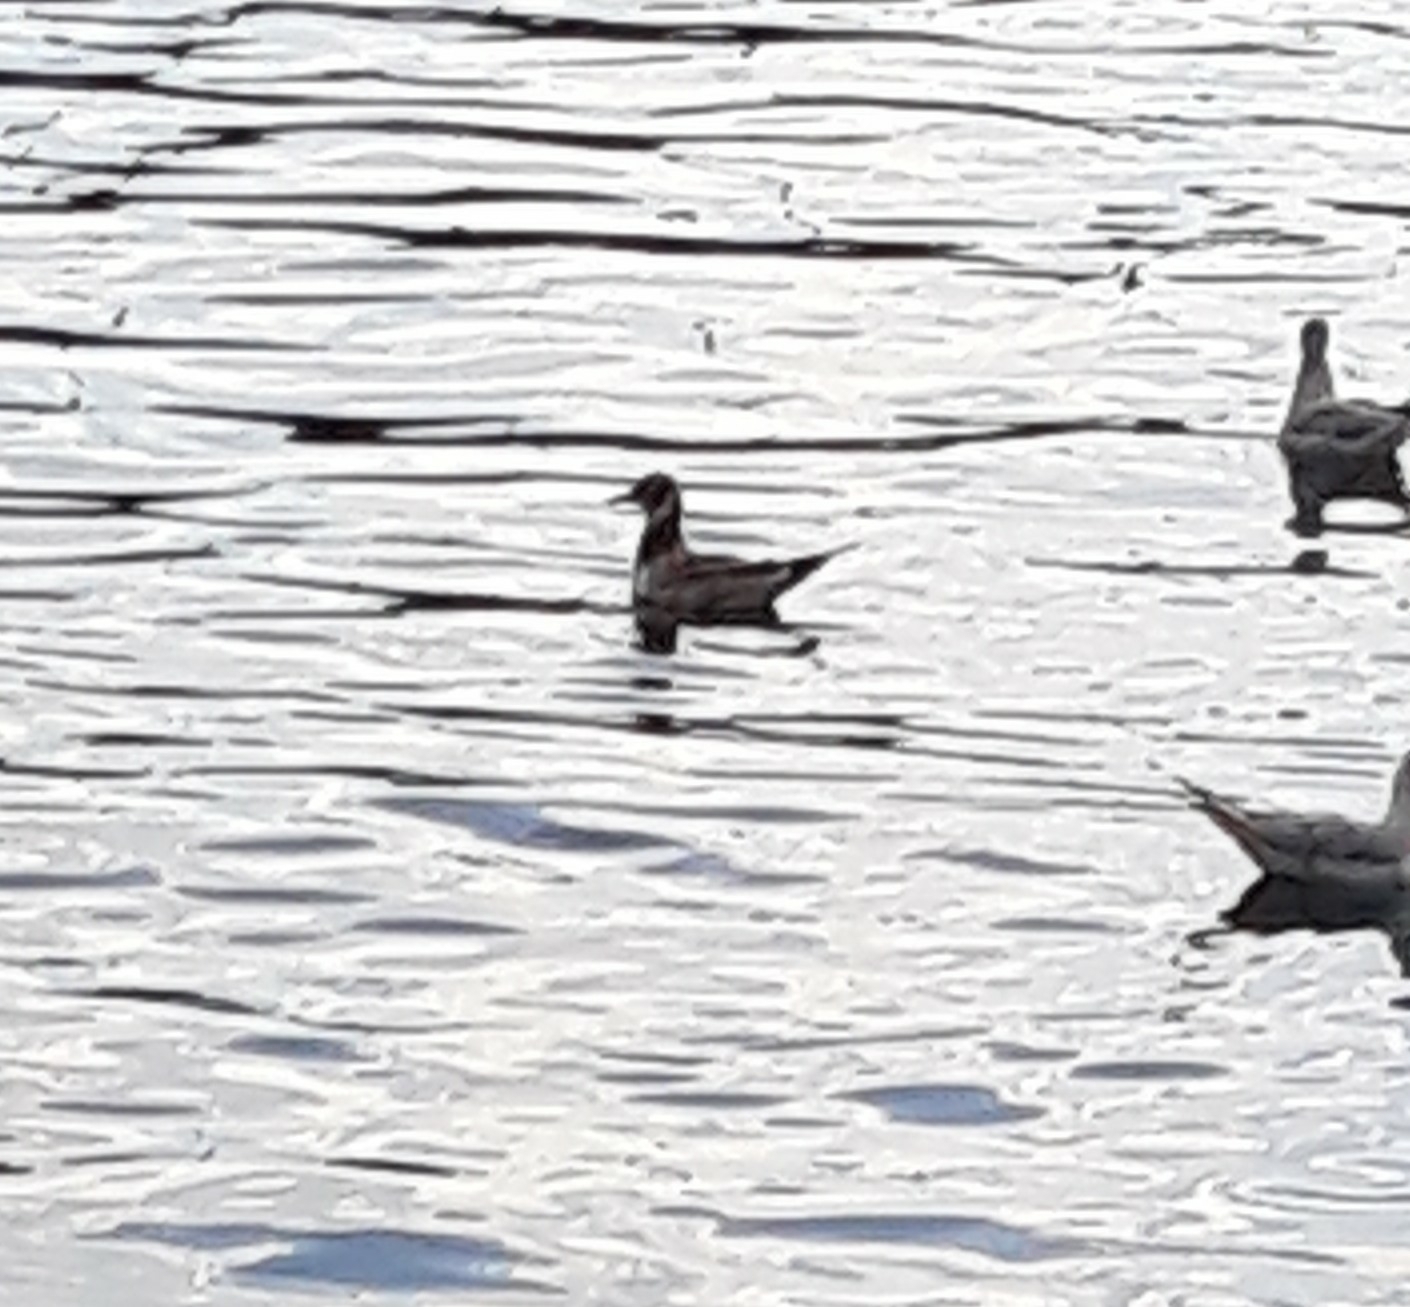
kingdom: Animalia
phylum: Chordata
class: Aves
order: Charadriiformes
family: Laridae
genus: Chroicocephalus
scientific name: Chroicocephalus ridibundus
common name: Black-headed gull
